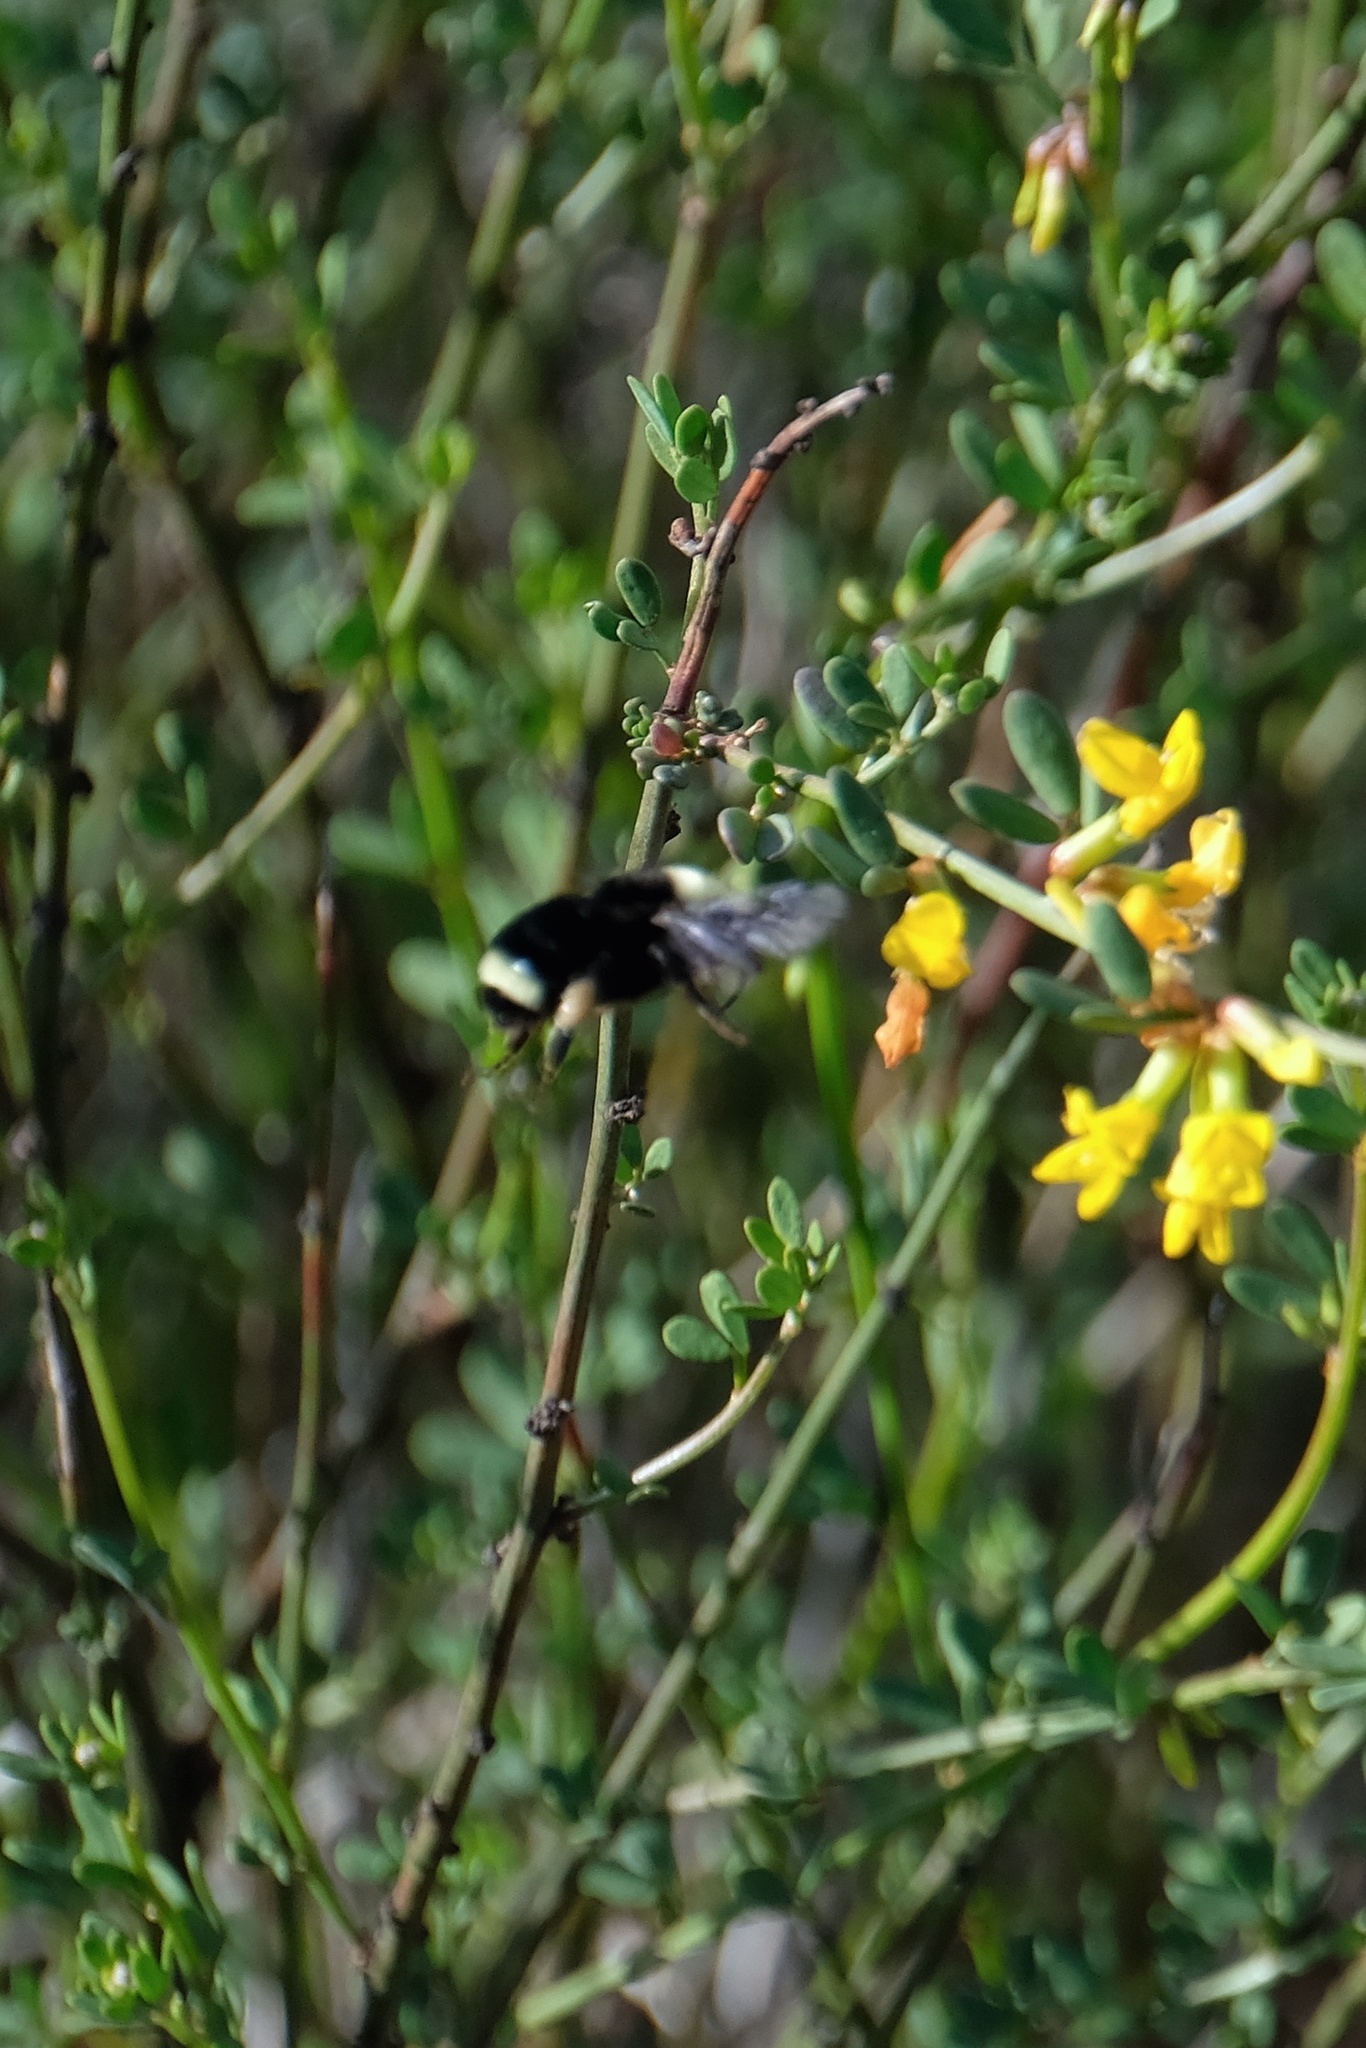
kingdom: Animalia
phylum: Arthropoda
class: Insecta
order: Hymenoptera
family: Apidae
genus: Bombus
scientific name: Bombus vosnesenskii
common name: Vosnesensky bumble bee
